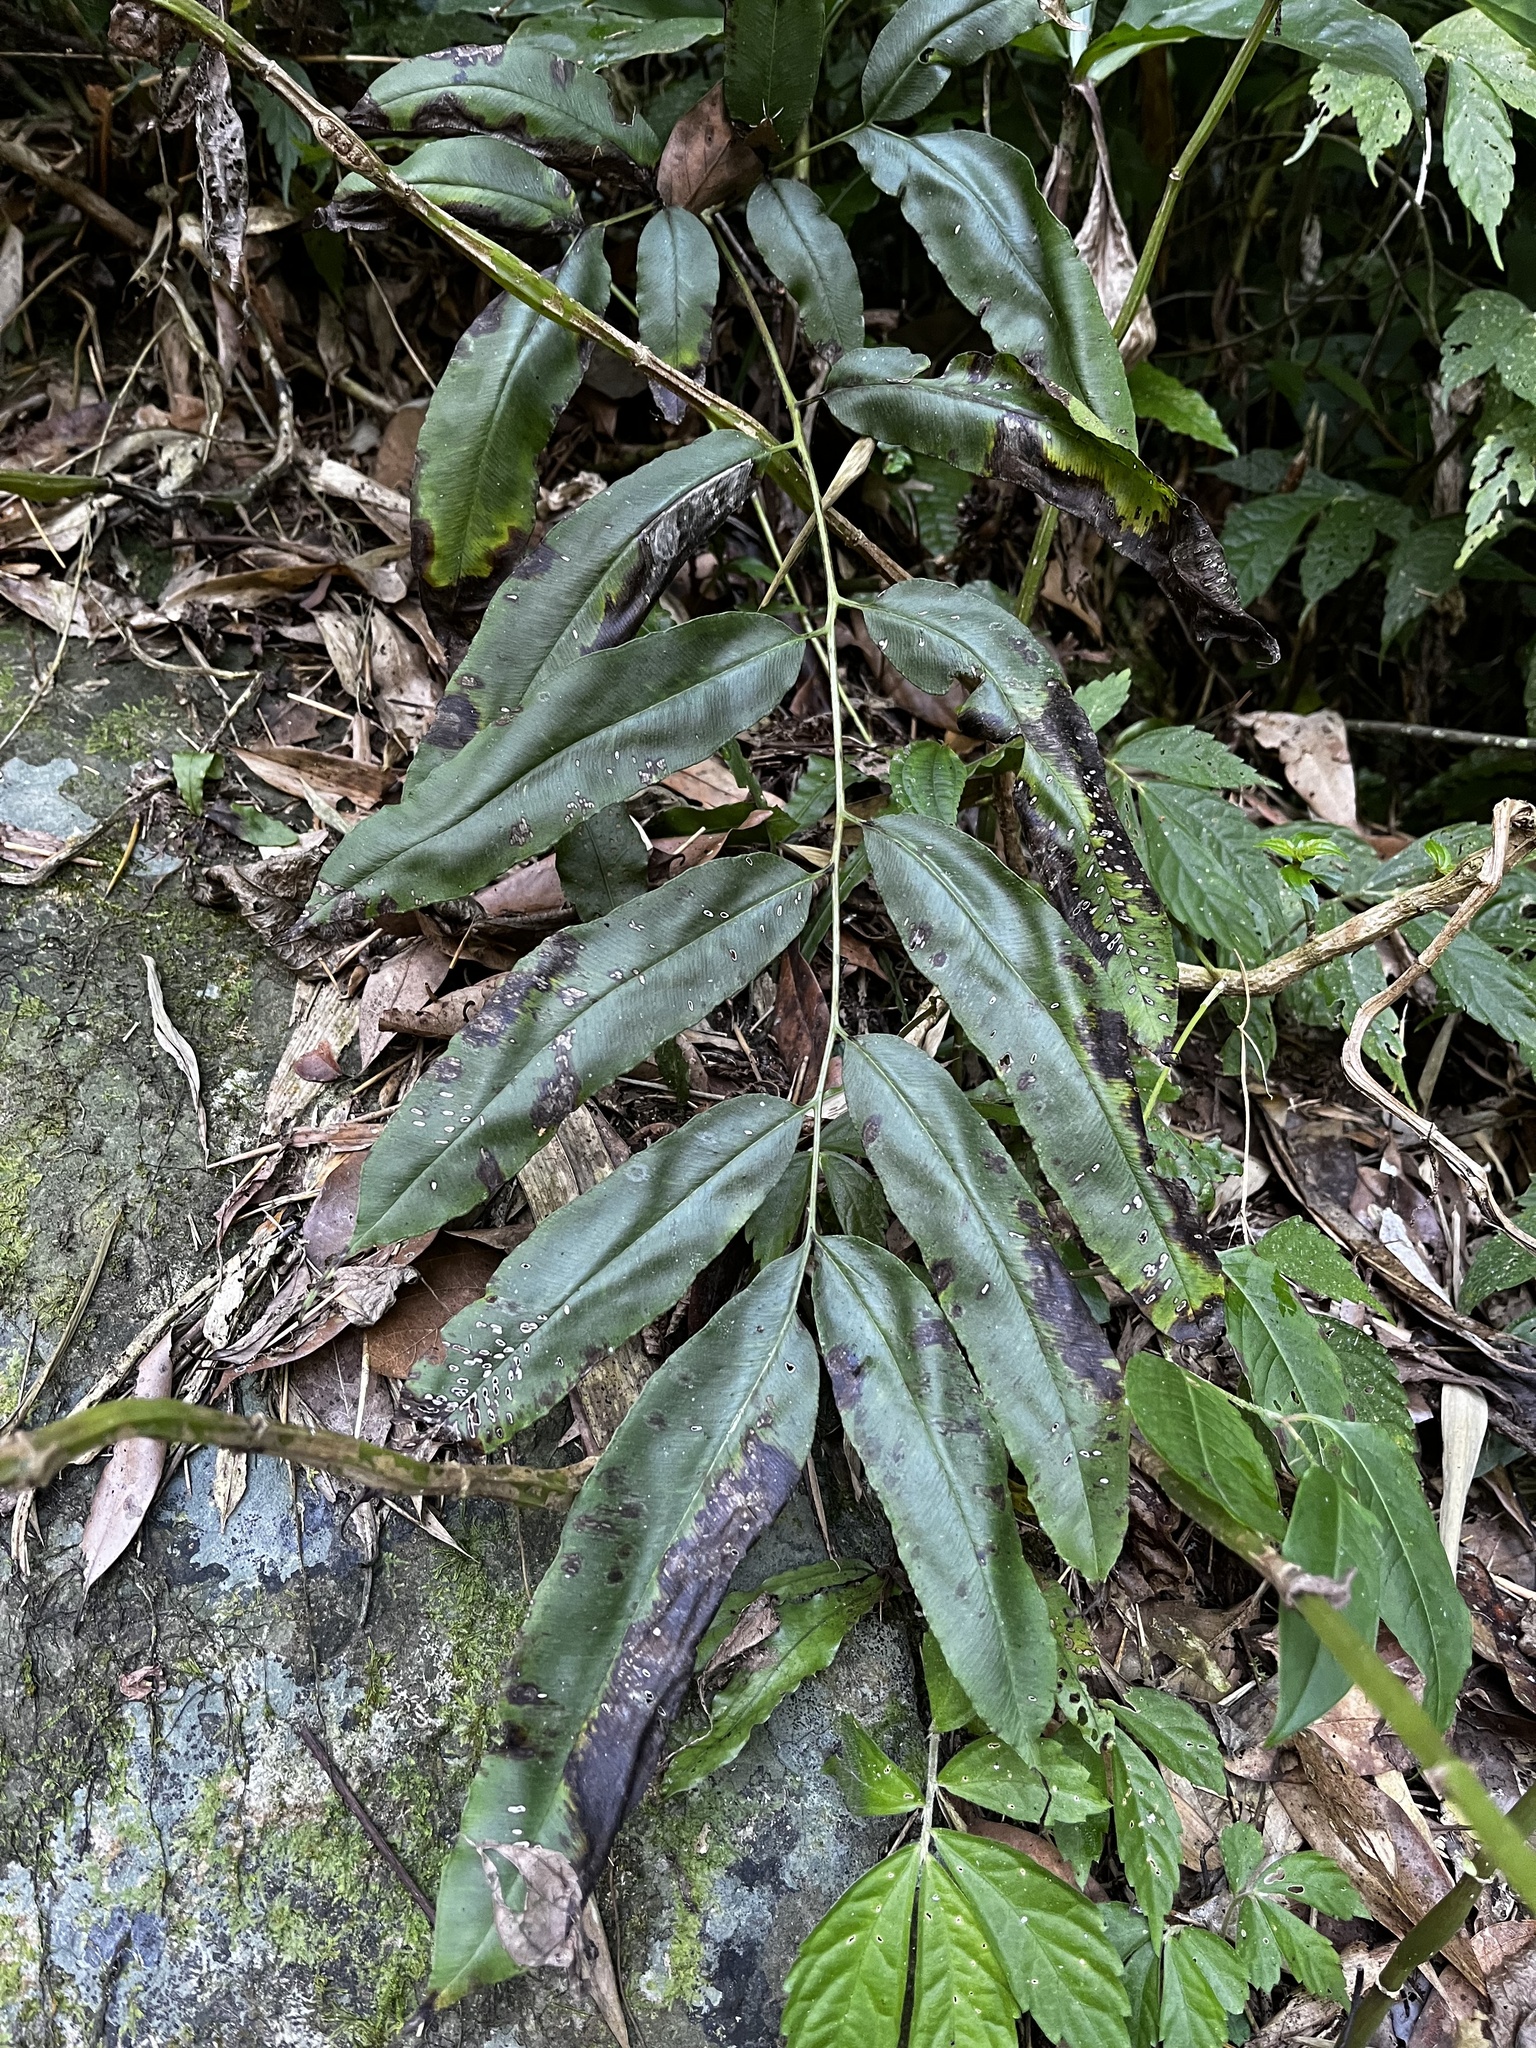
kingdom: Plantae
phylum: Tracheophyta
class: Polypodiopsida
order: Polypodiales
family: Pteridaceae
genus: Coniogramme
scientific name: Coniogramme fraxinea
